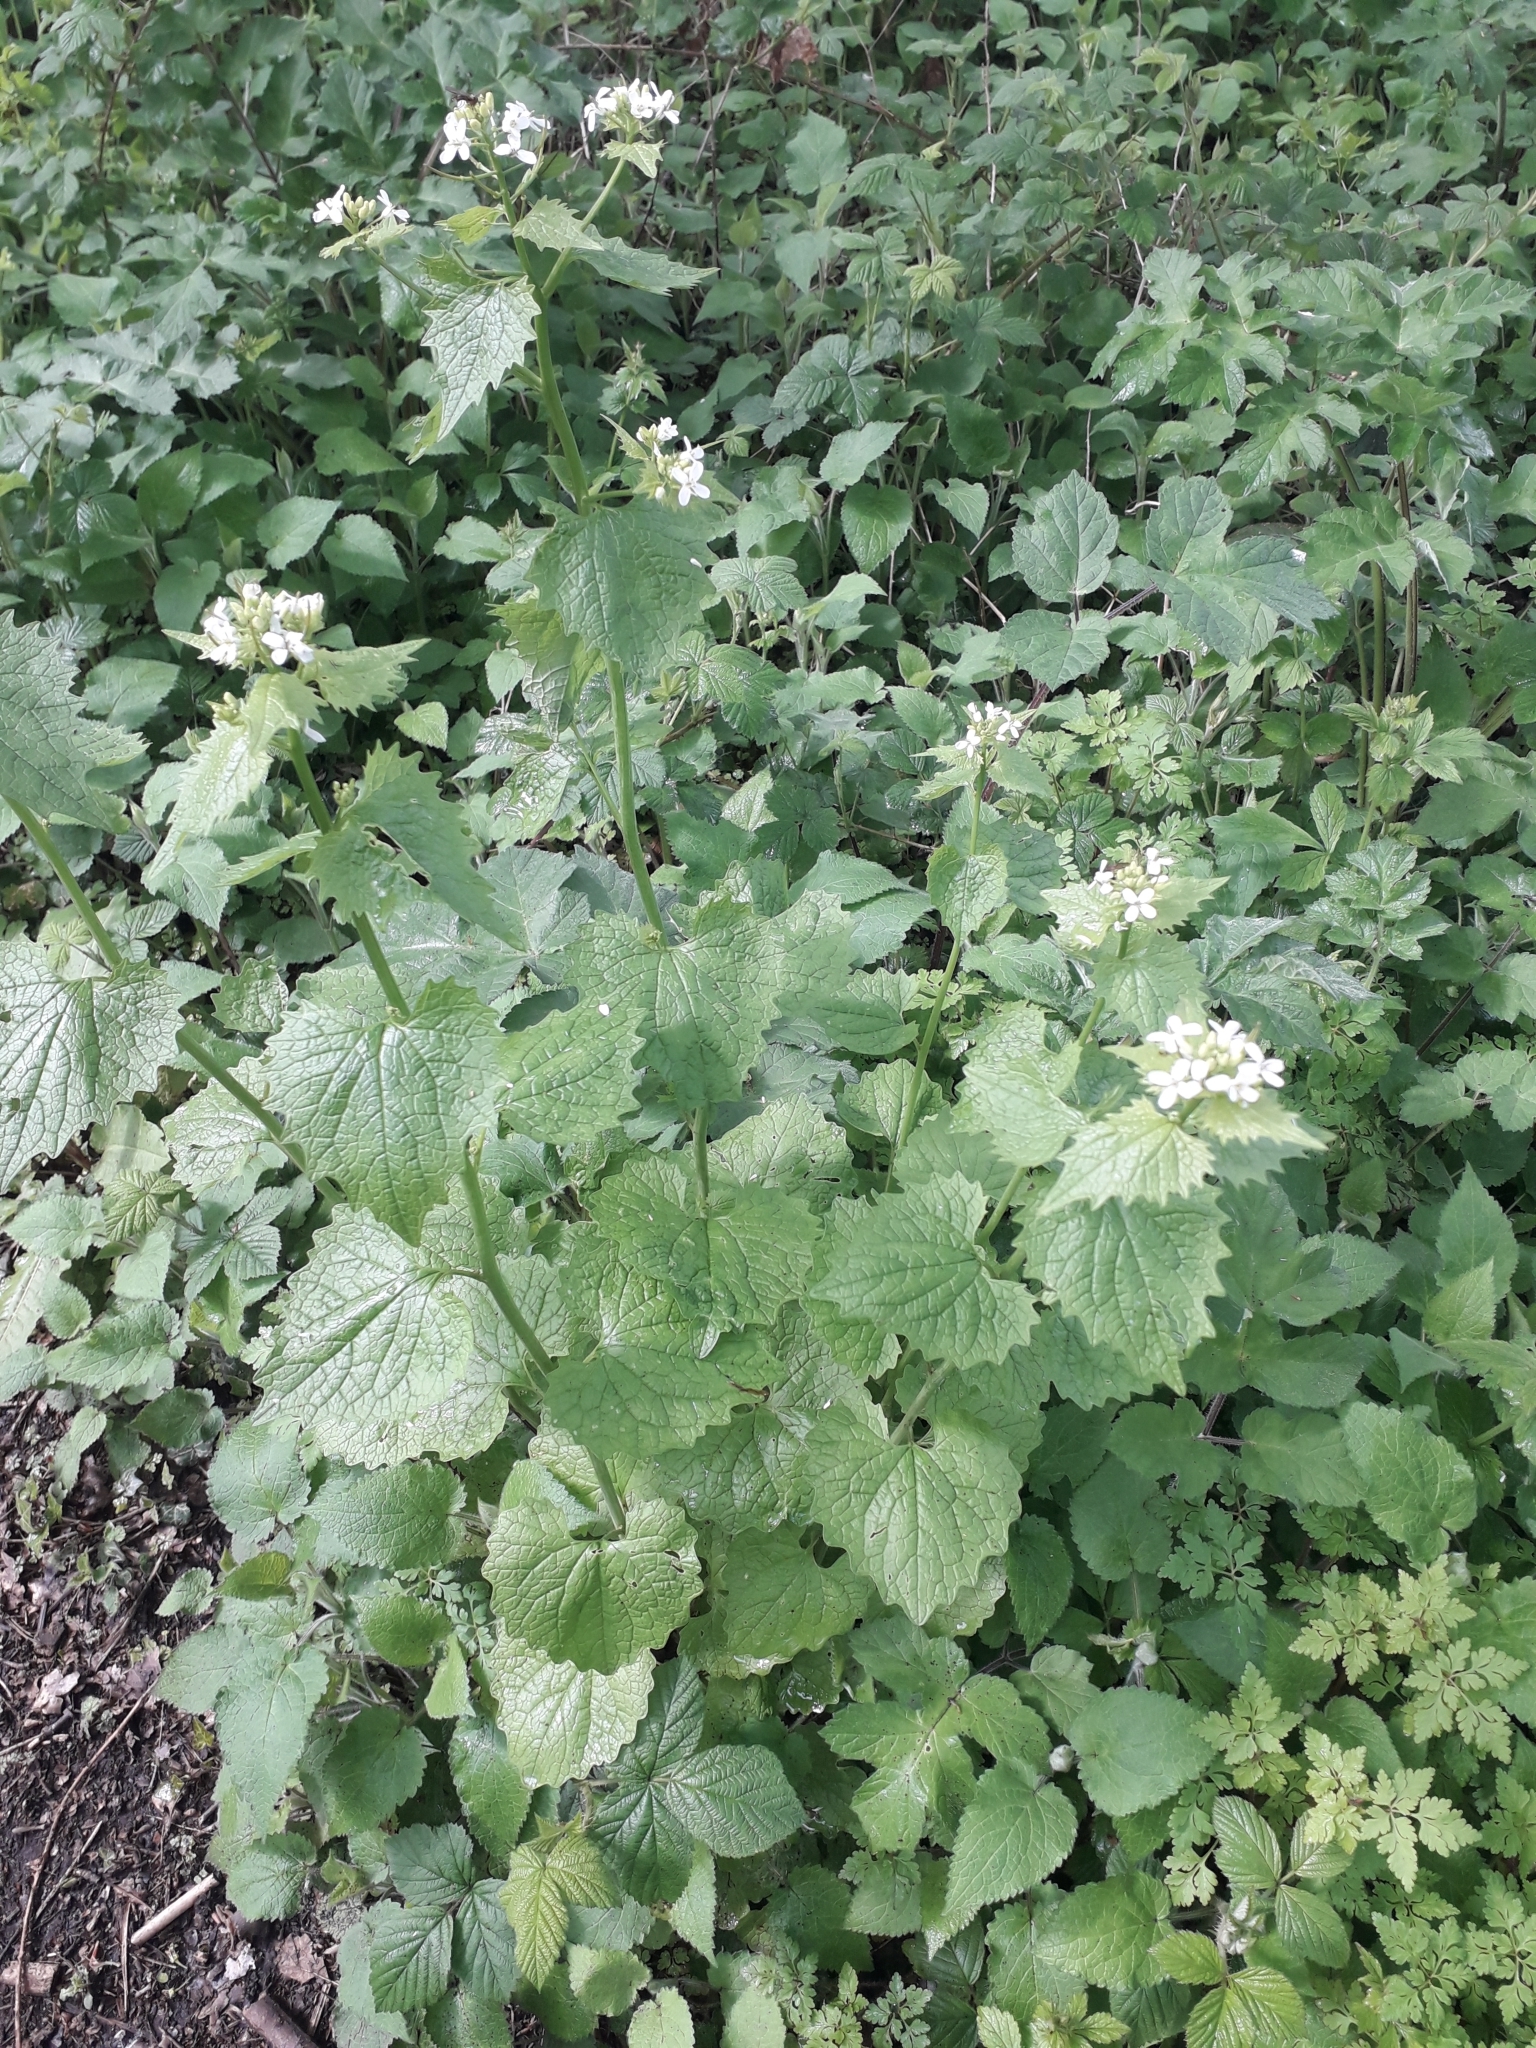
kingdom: Plantae
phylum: Tracheophyta
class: Magnoliopsida
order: Brassicales
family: Brassicaceae
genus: Alliaria
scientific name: Alliaria petiolata
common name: Garlic mustard
